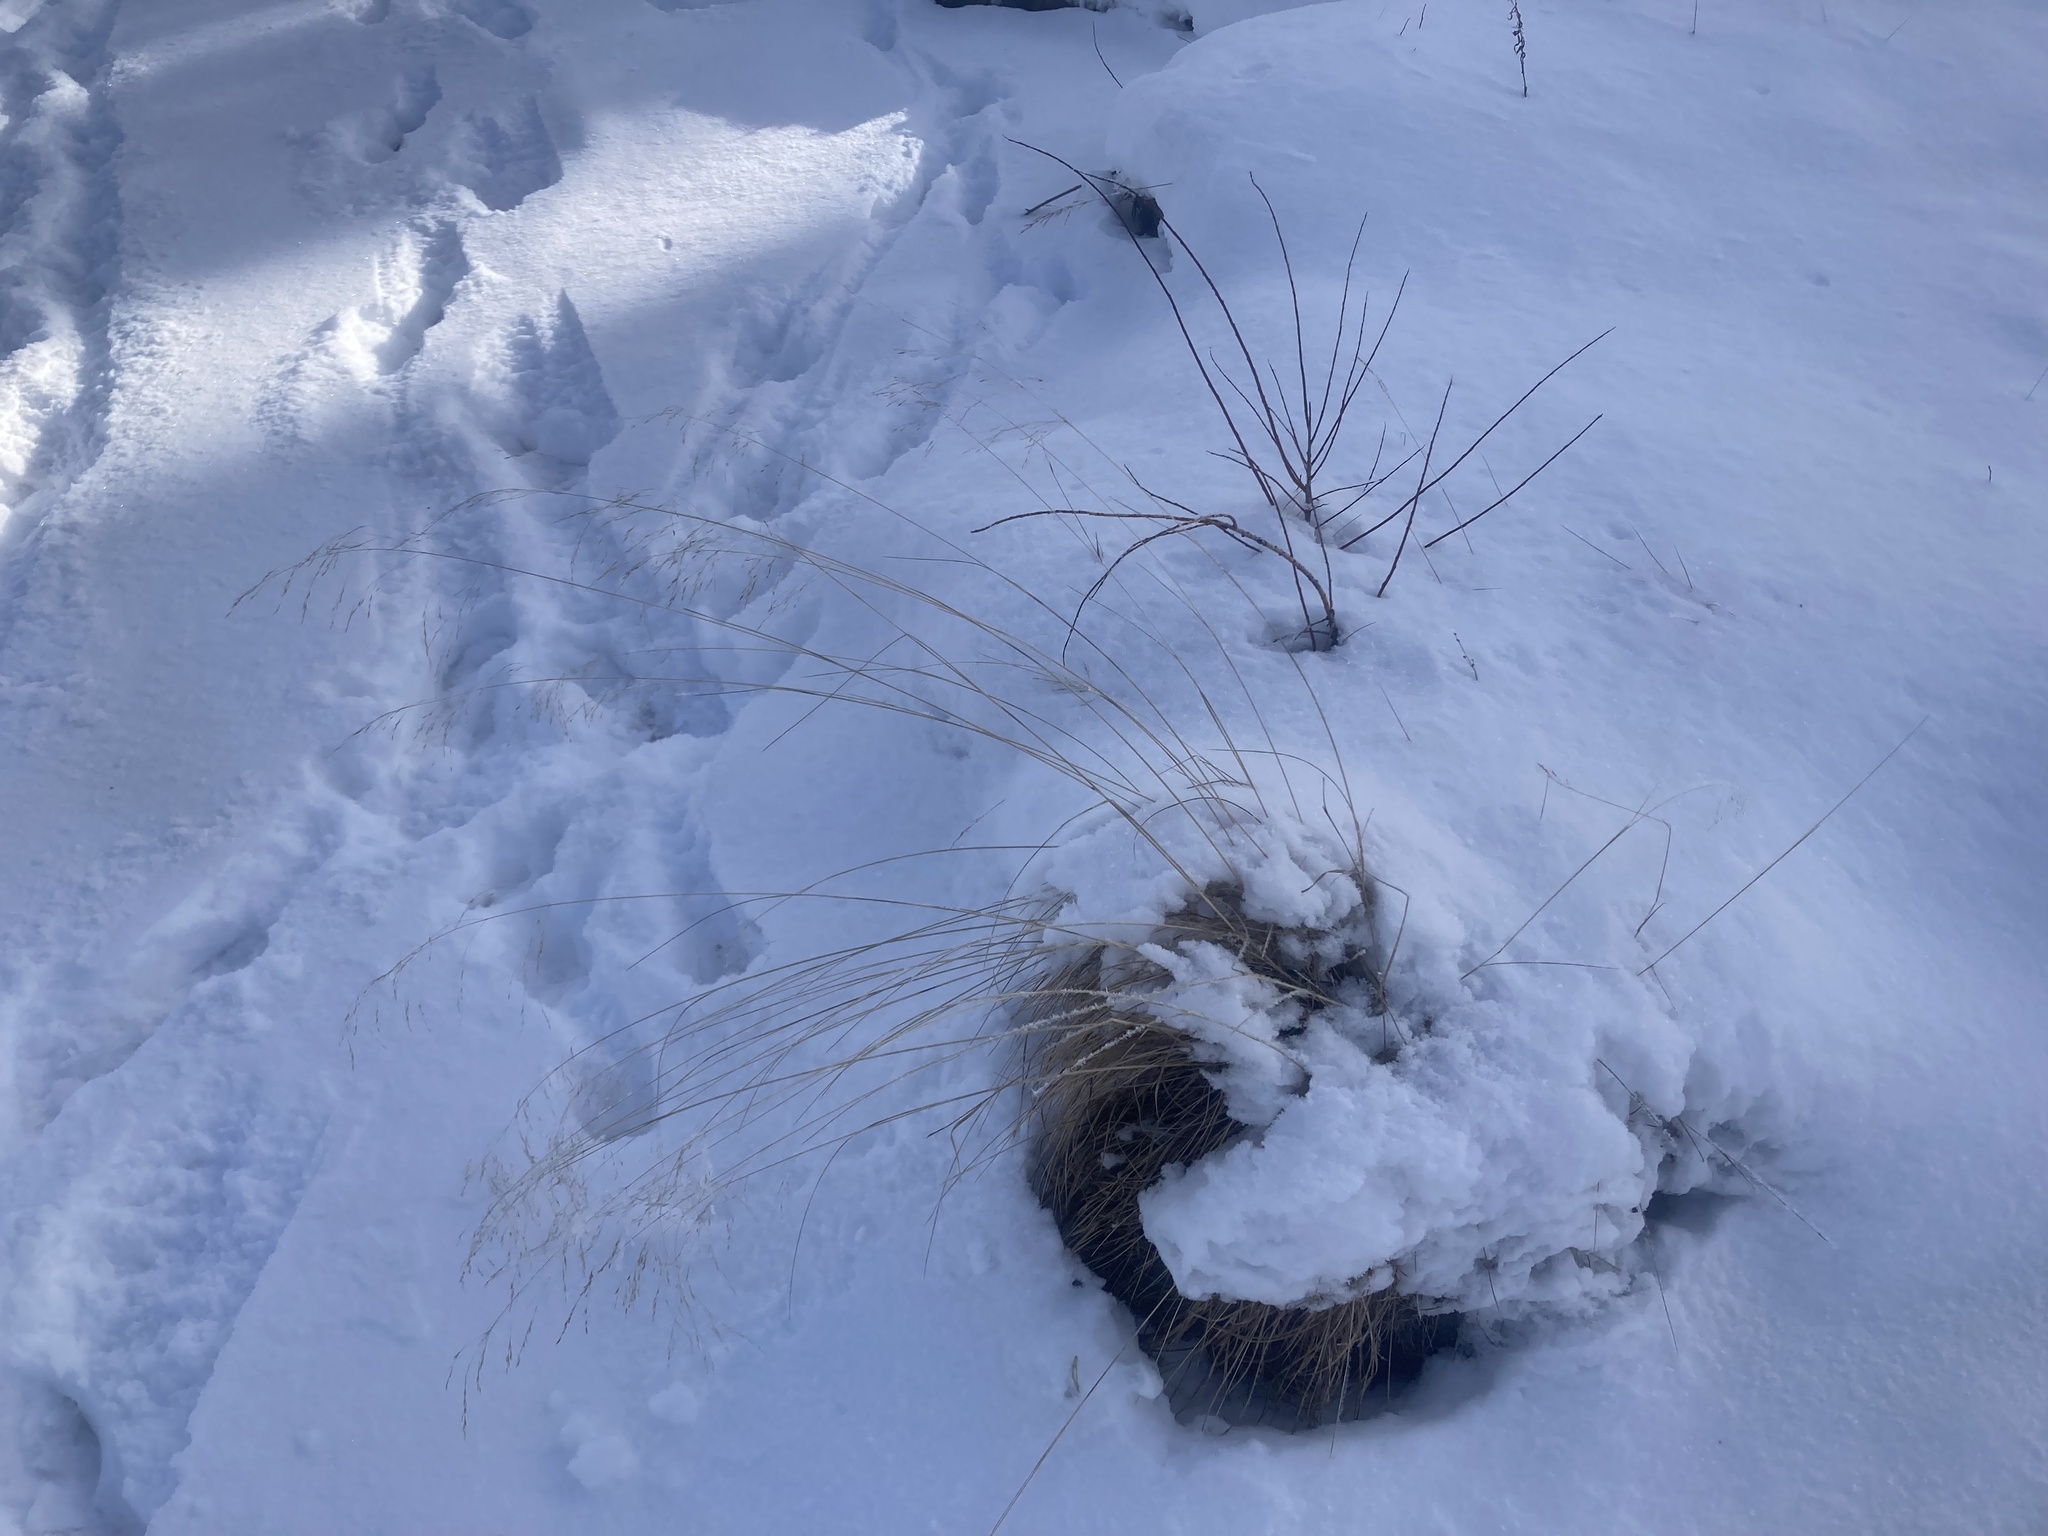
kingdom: Plantae
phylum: Tracheophyta
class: Liliopsida
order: Poales
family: Poaceae
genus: Deschampsia
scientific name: Deschampsia cespitosa
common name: Tufted hair-grass
